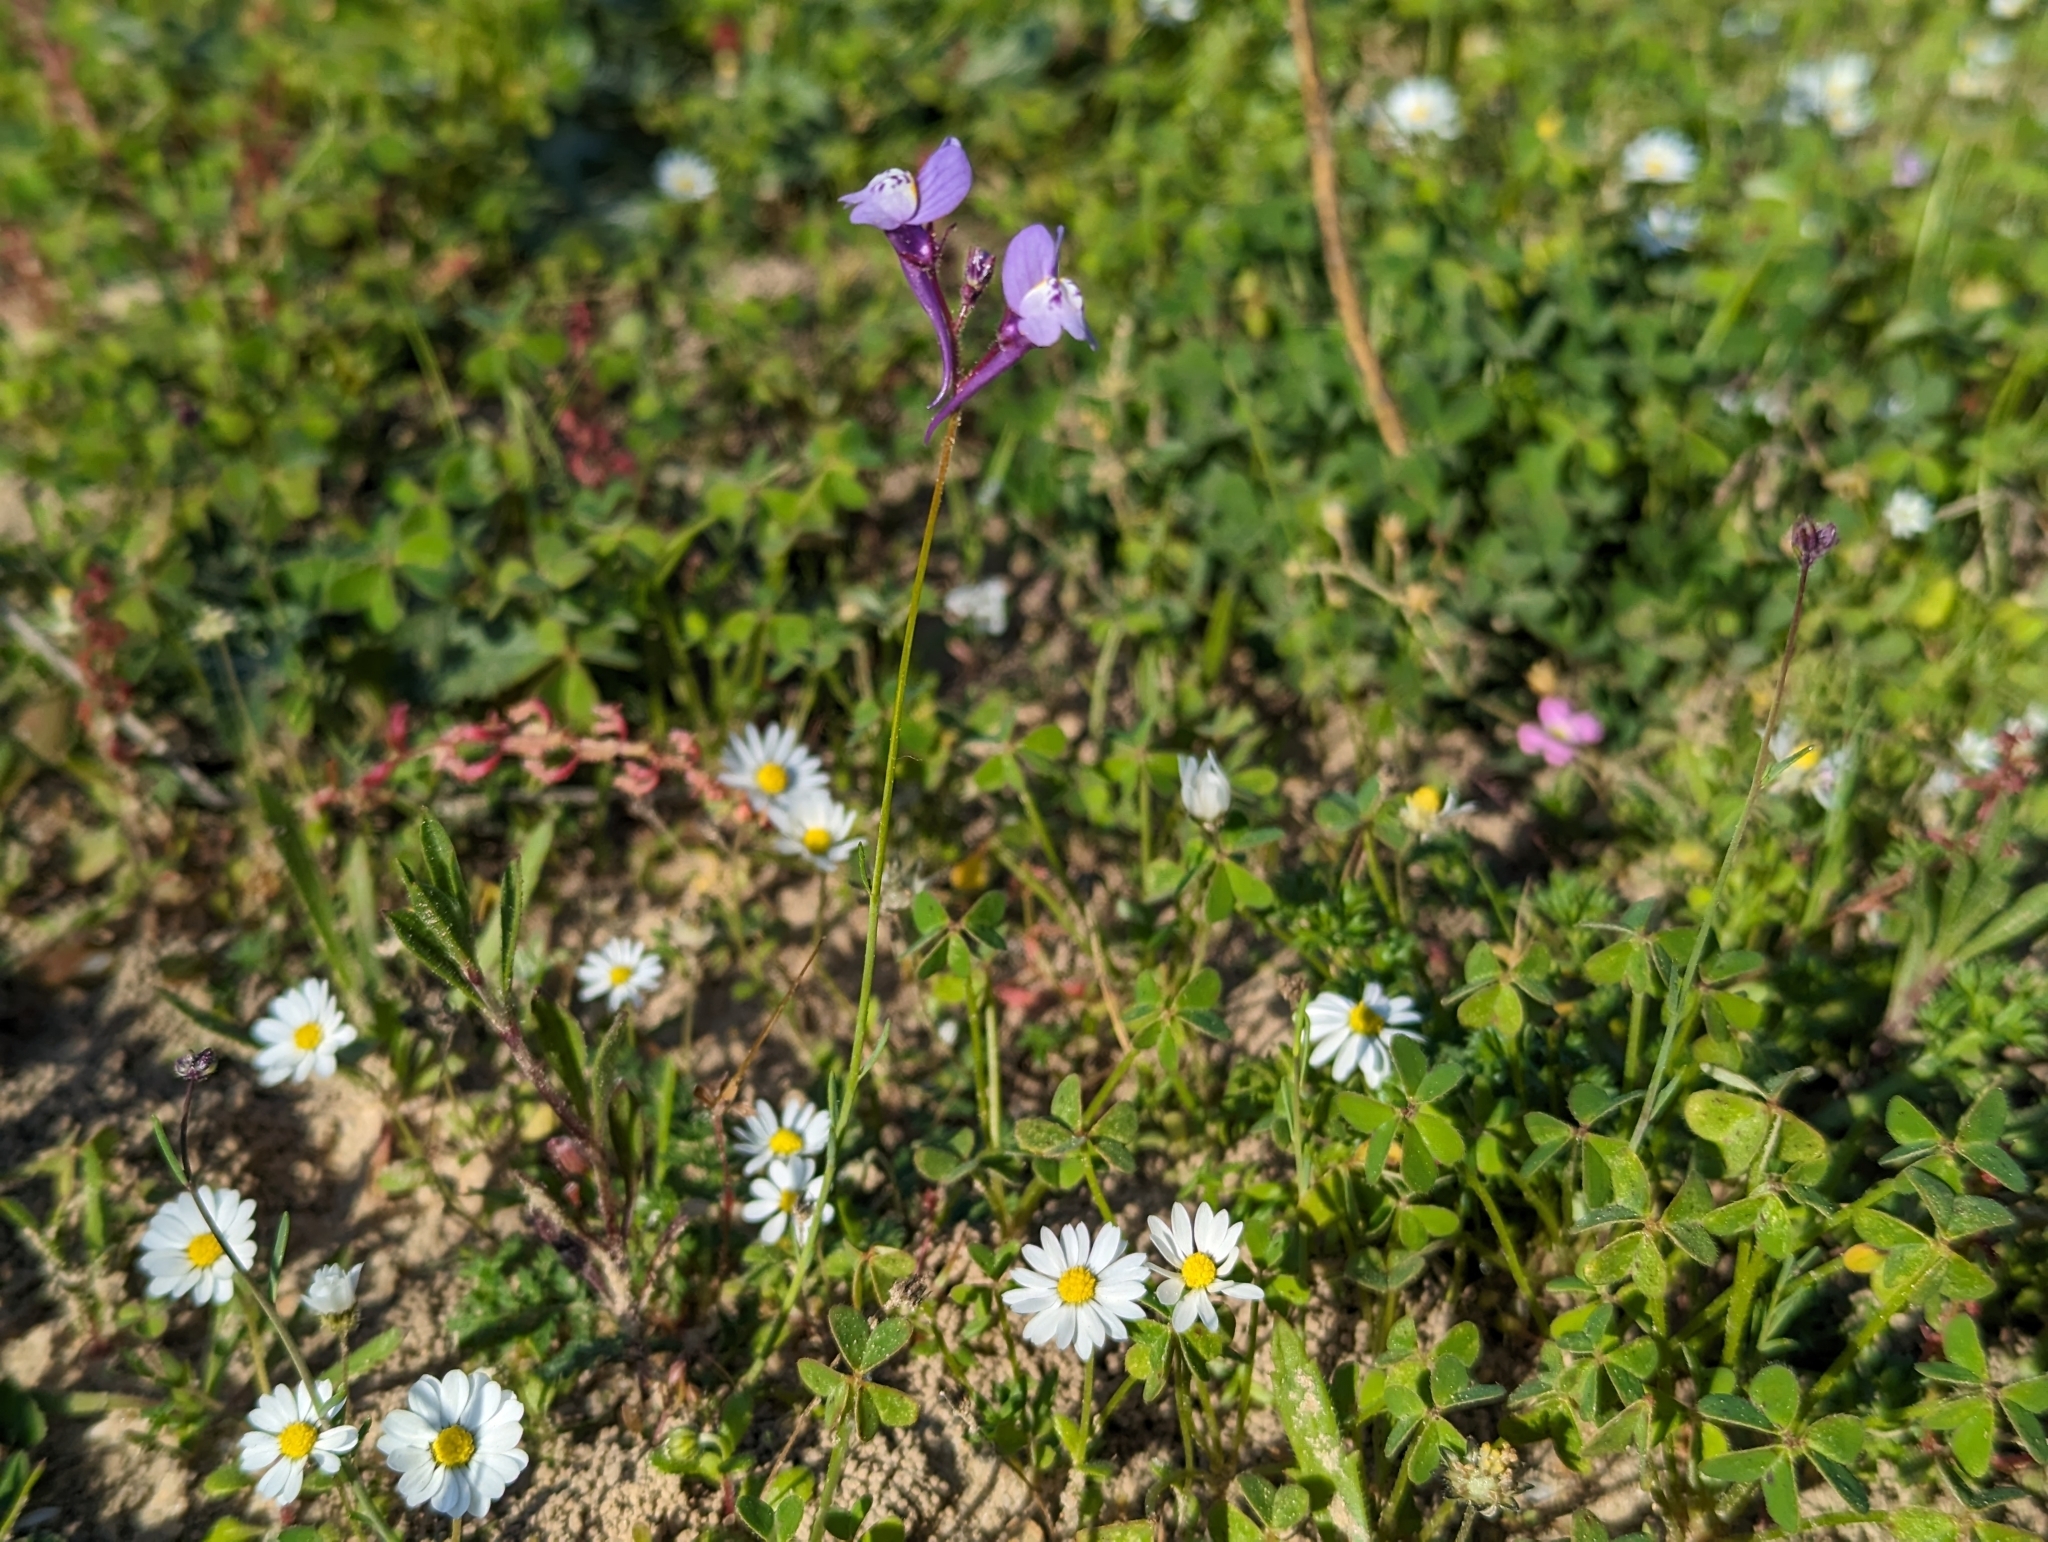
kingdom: Plantae
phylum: Tracheophyta
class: Magnoliopsida
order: Lamiales
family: Plantaginaceae
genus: Linaria
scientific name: Linaria algarviana
